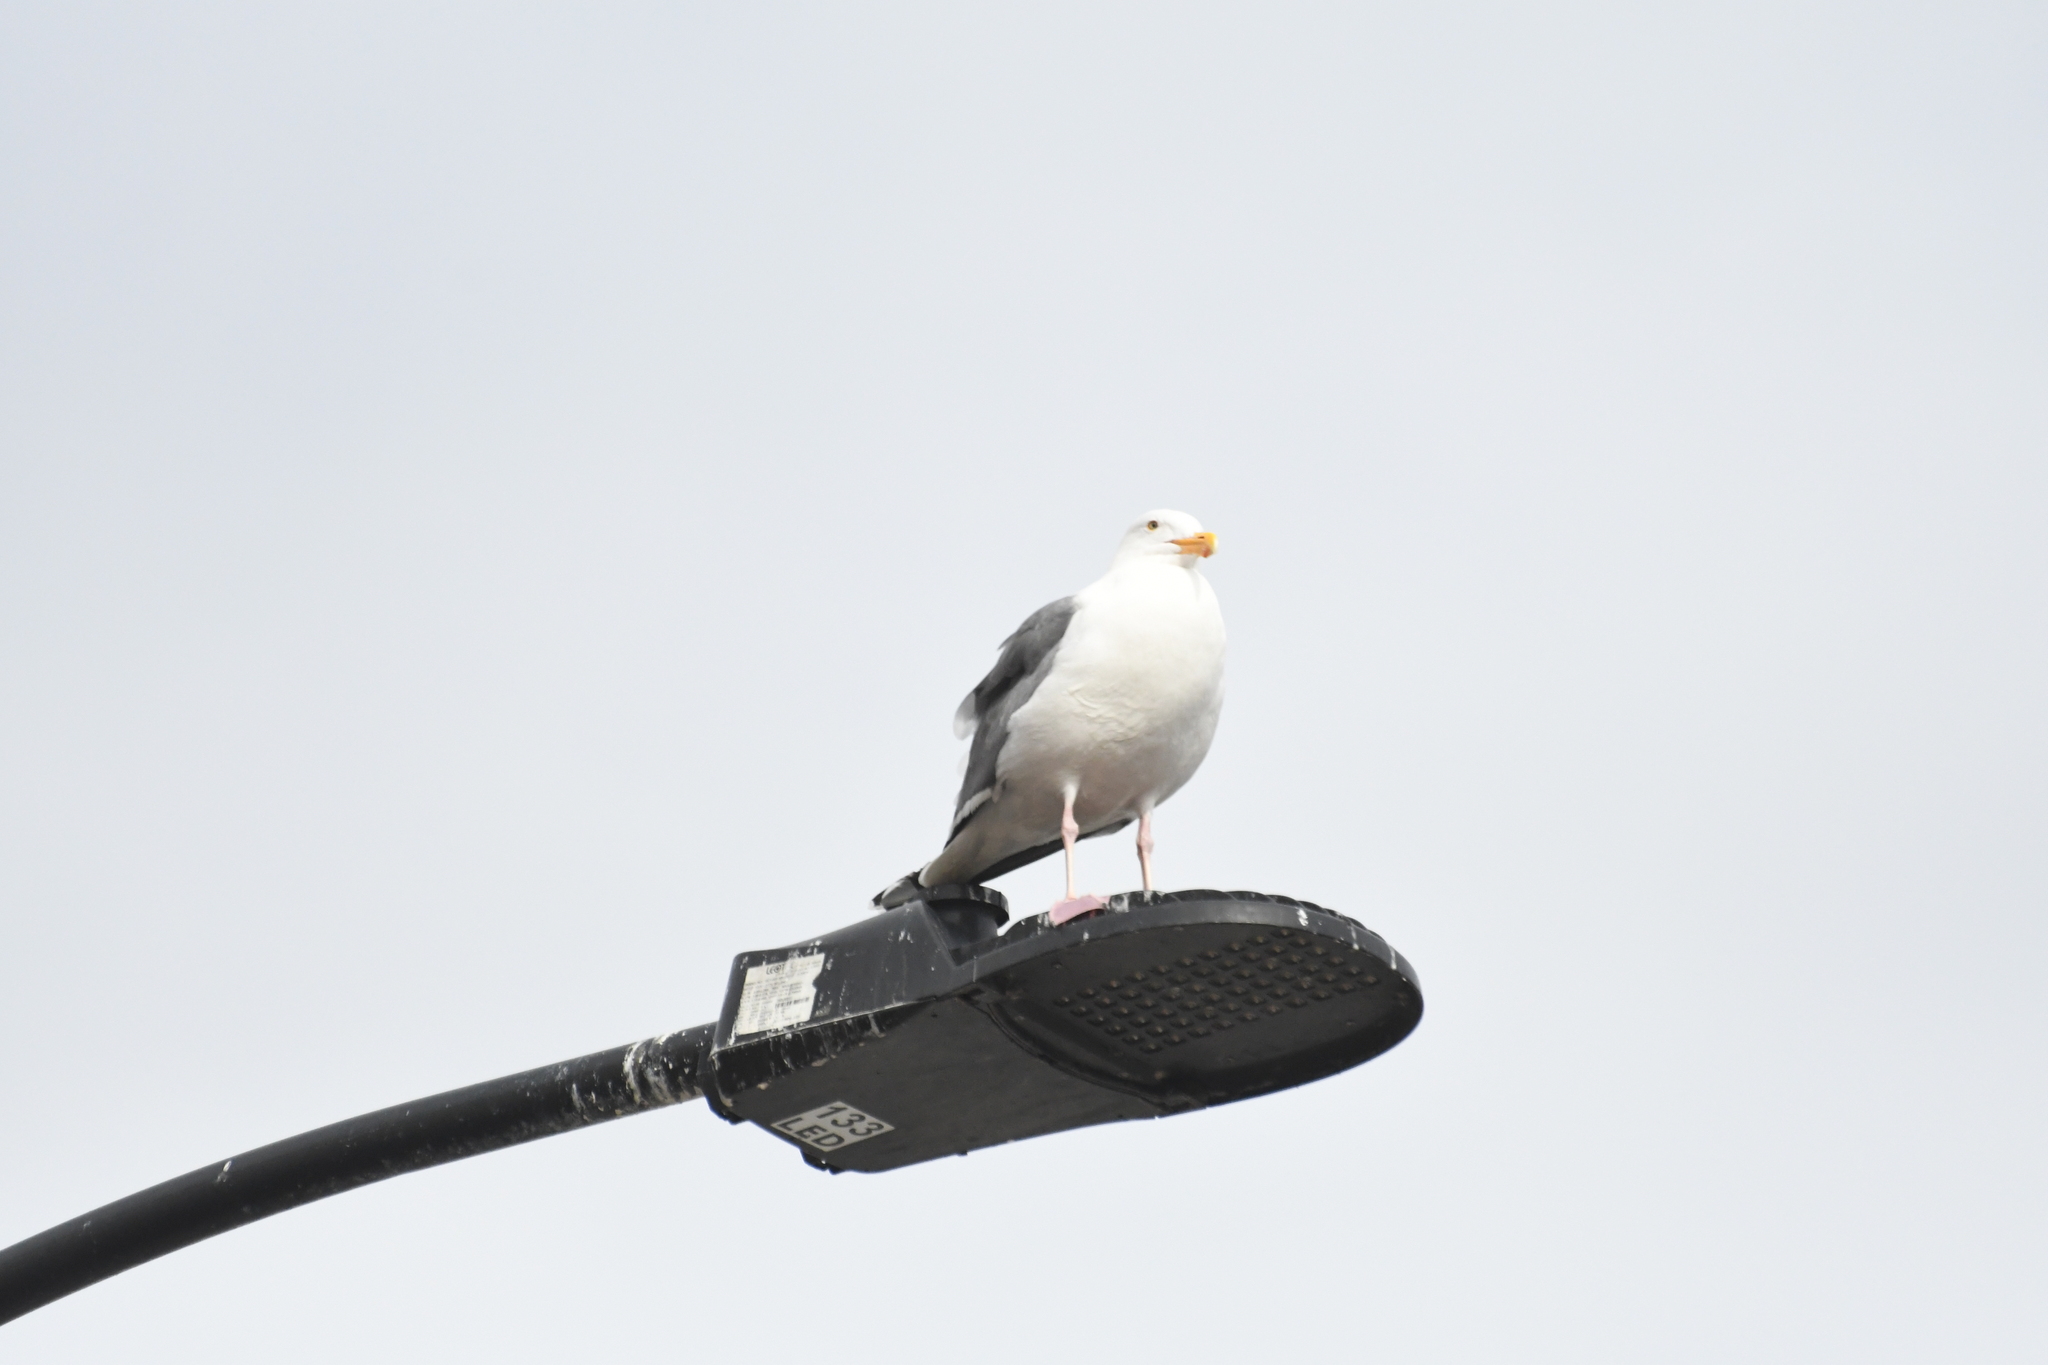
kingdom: Animalia
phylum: Chordata
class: Aves
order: Charadriiformes
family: Laridae
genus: Larus
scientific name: Larus occidentalis
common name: Western gull
